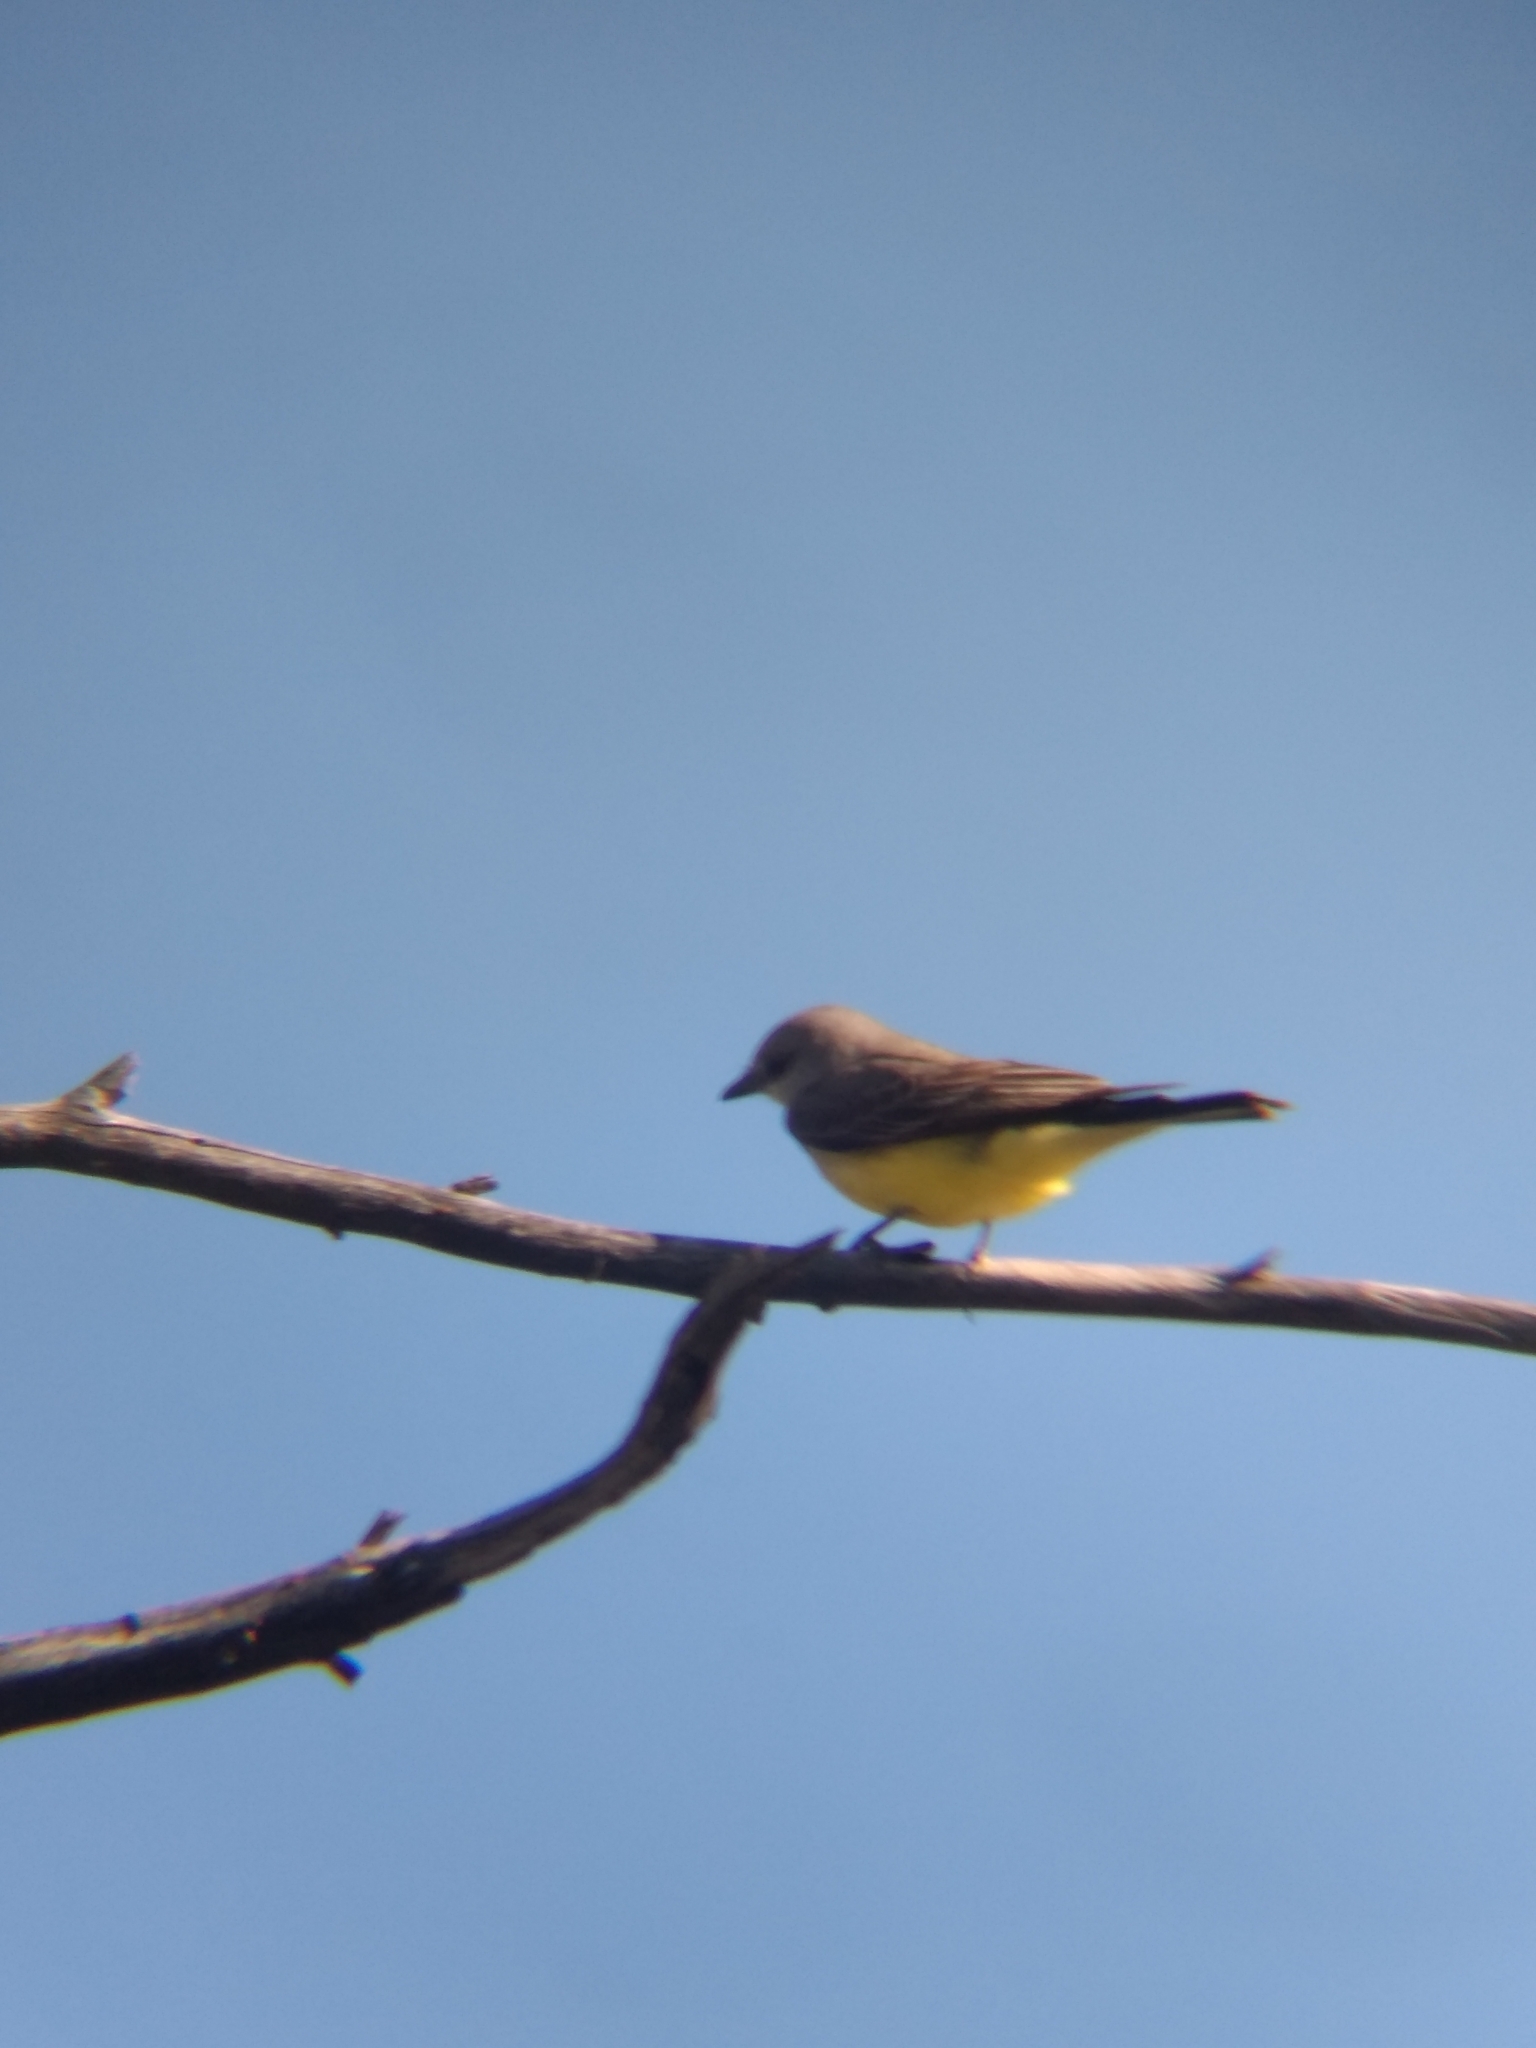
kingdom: Animalia
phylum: Chordata
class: Aves
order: Passeriformes
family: Tyrannidae
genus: Tyrannus
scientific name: Tyrannus verticalis
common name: Western kingbird
